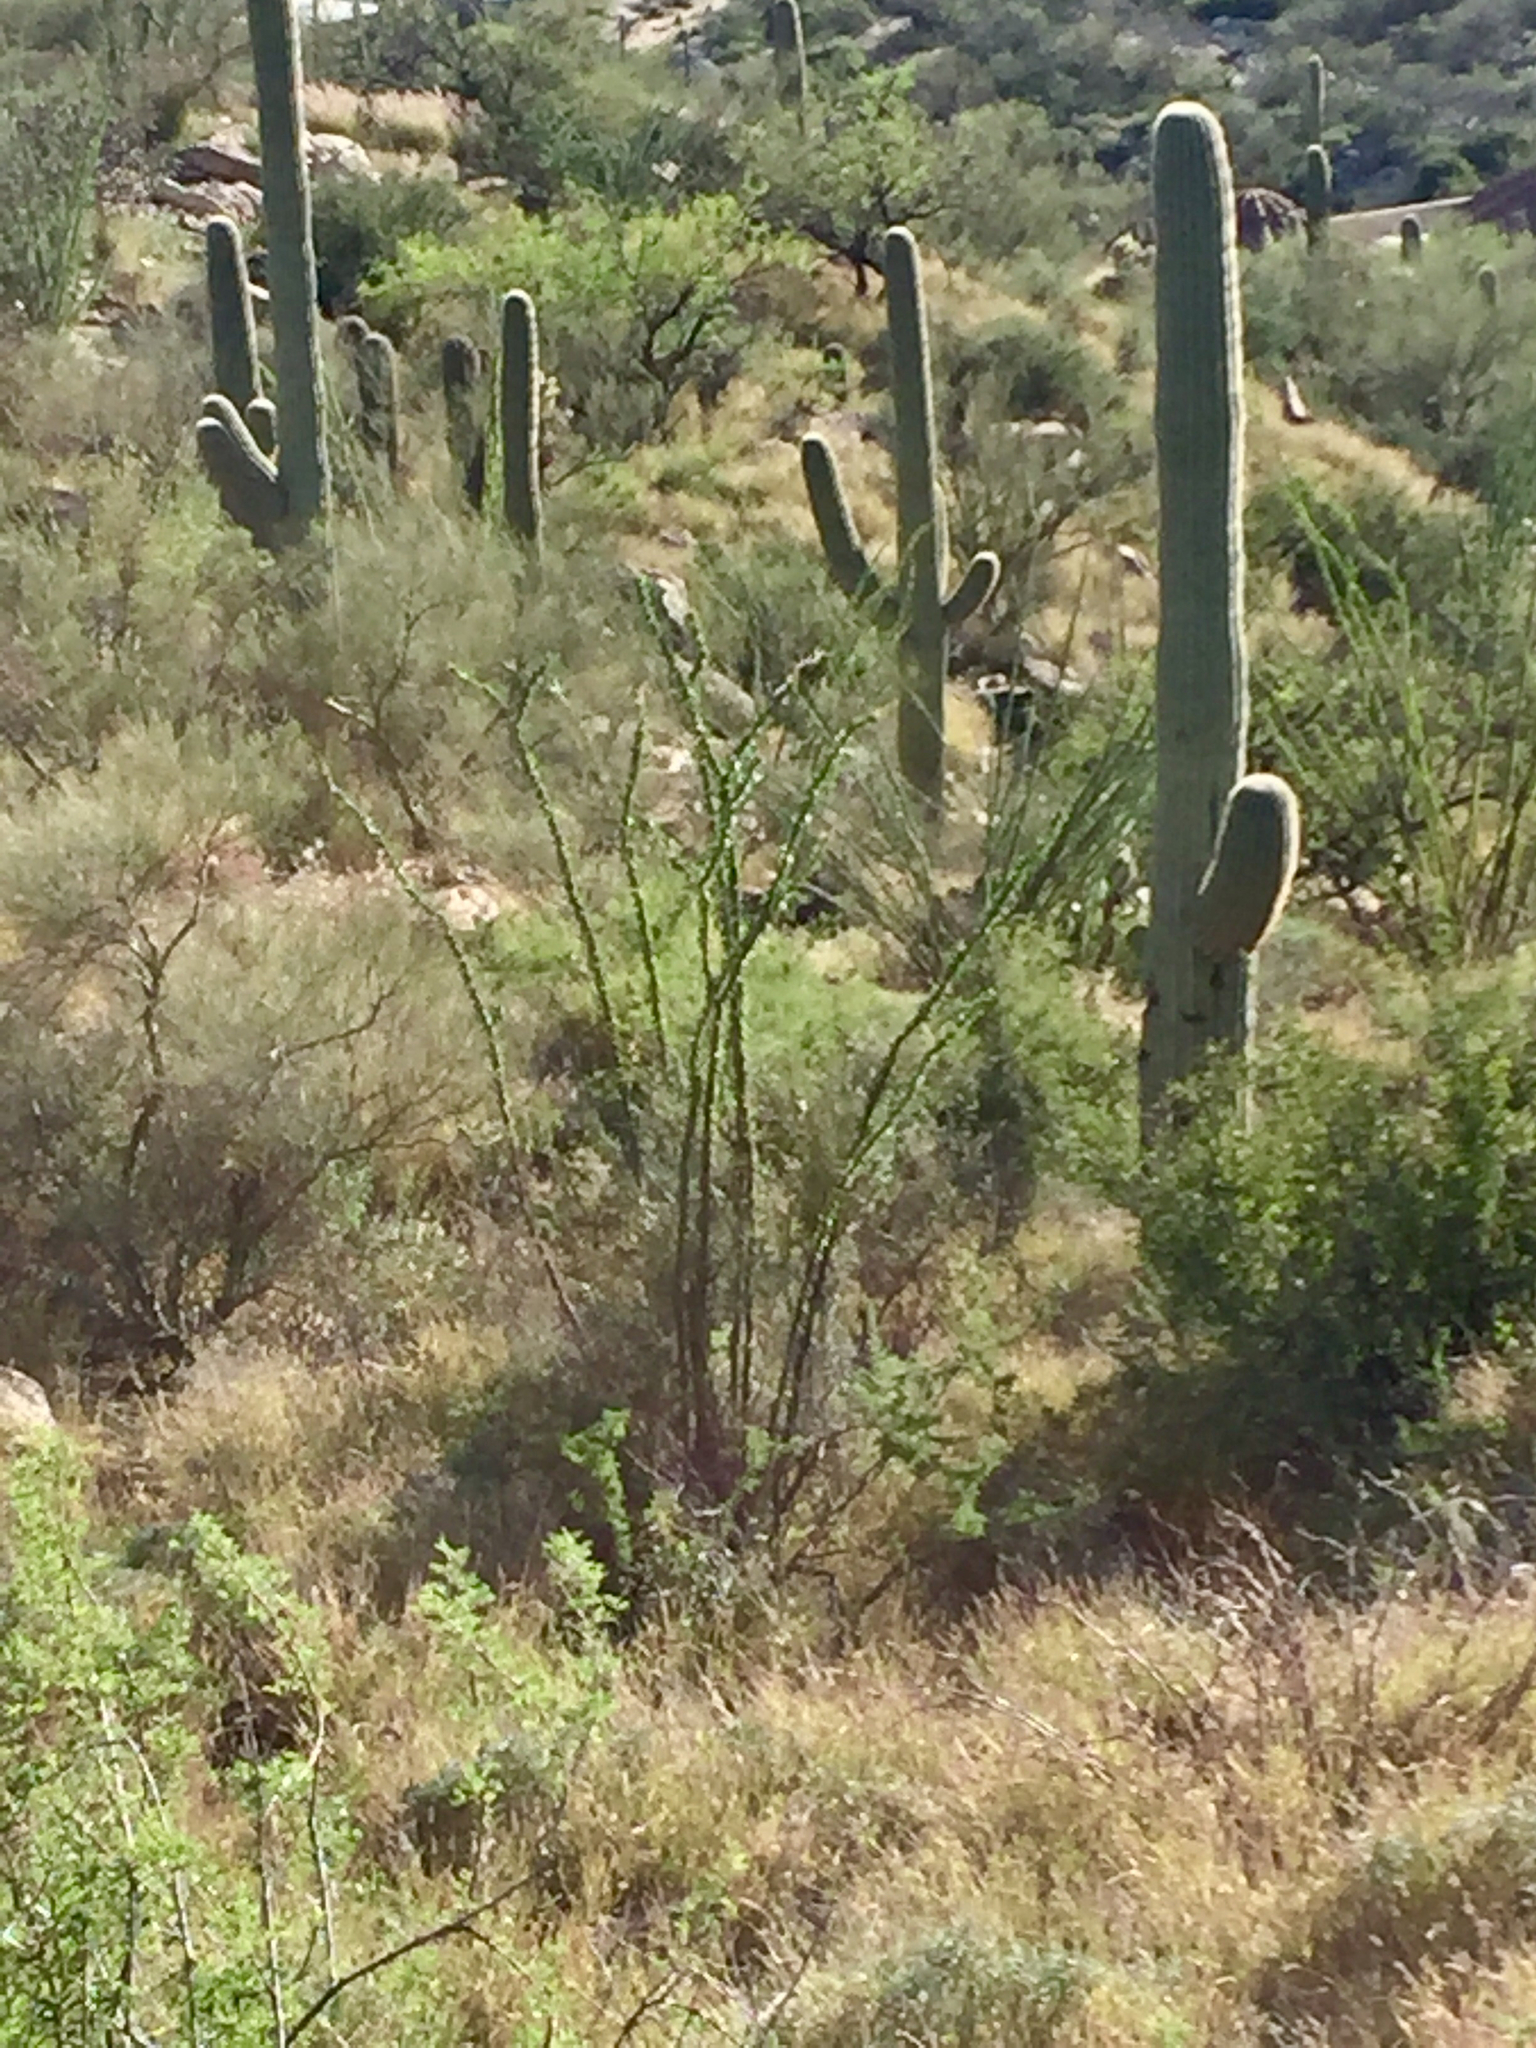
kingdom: Plantae
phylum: Tracheophyta
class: Magnoliopsida
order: Caryophyllales
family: Cactaceae
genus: Carnegiea
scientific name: Carnegiea gigantea
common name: Saguaro
